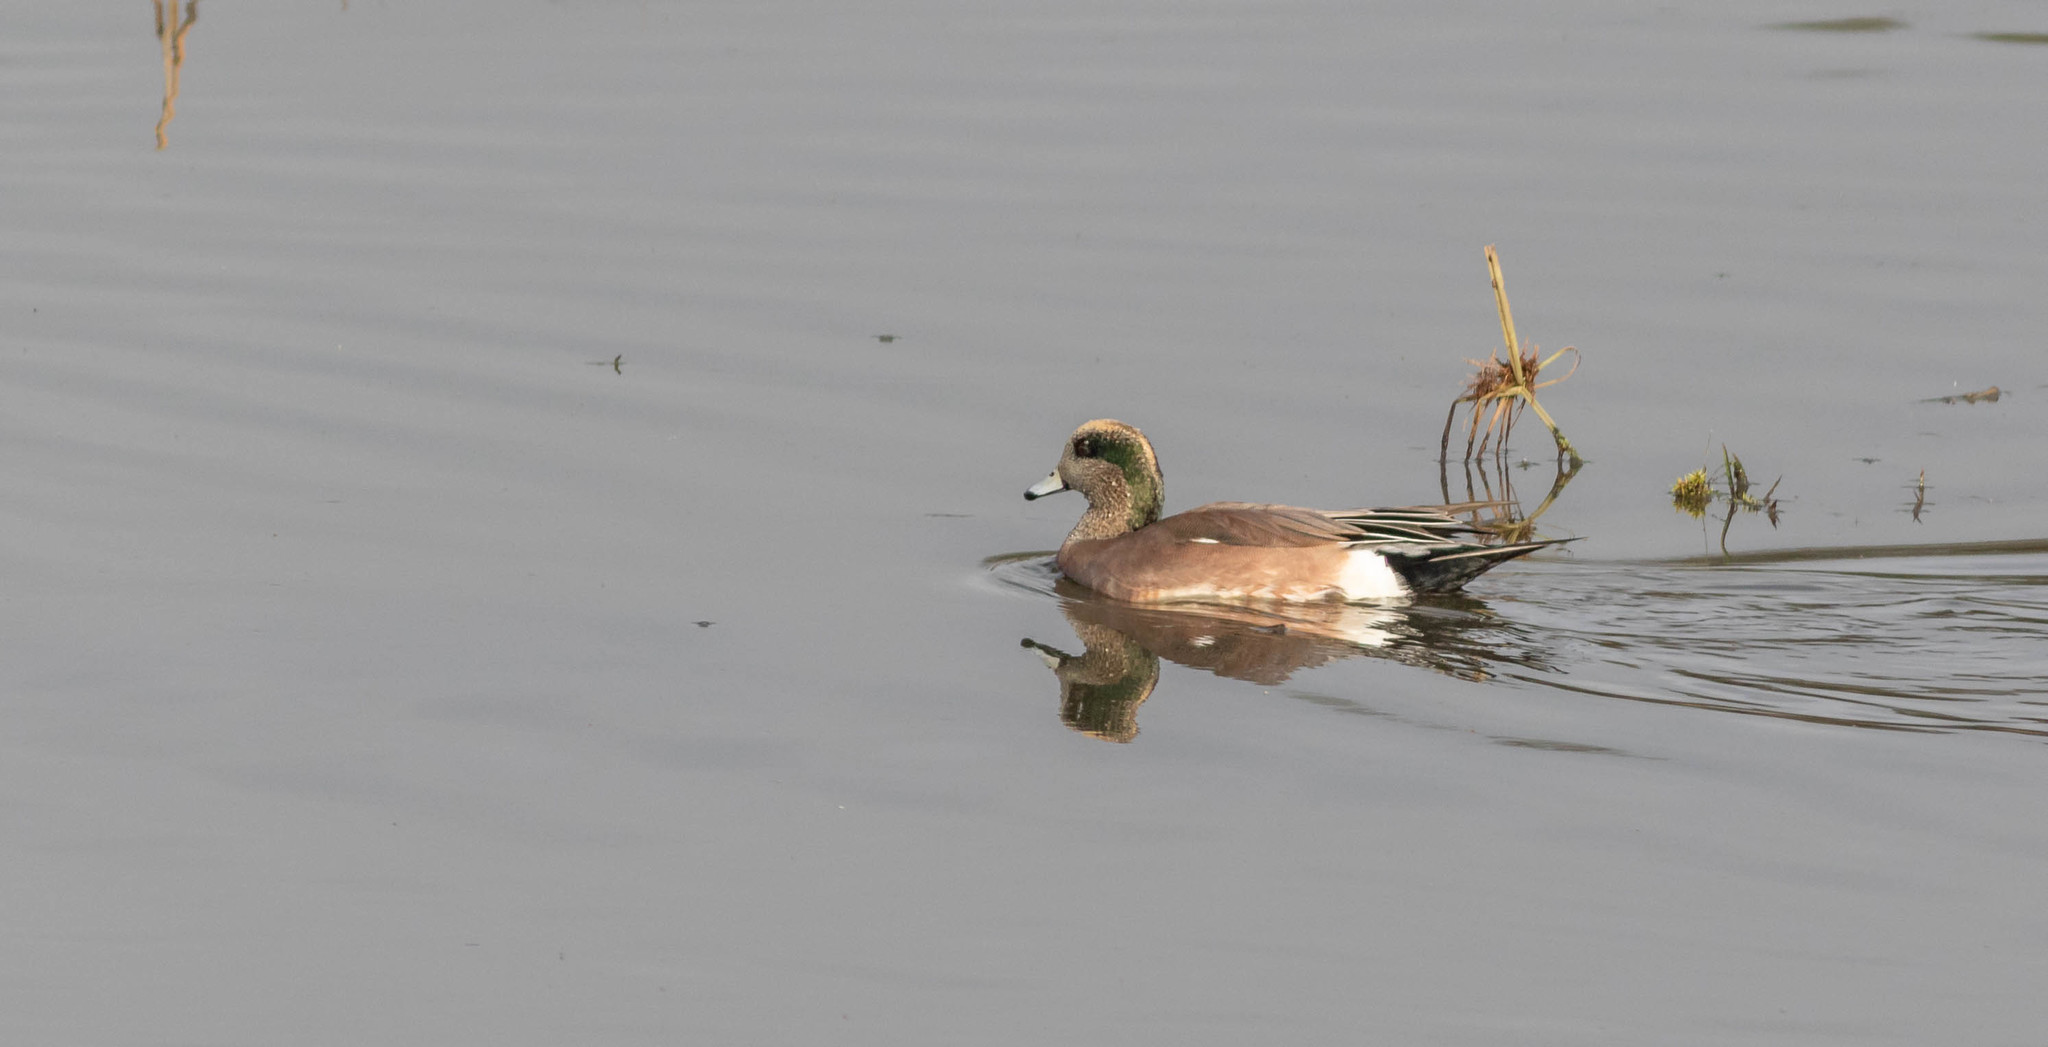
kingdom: Animalia
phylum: Chordata
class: Aves
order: Anseriformes
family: Anatidae
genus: Mareca
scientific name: Mareca americana
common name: American wigeon
